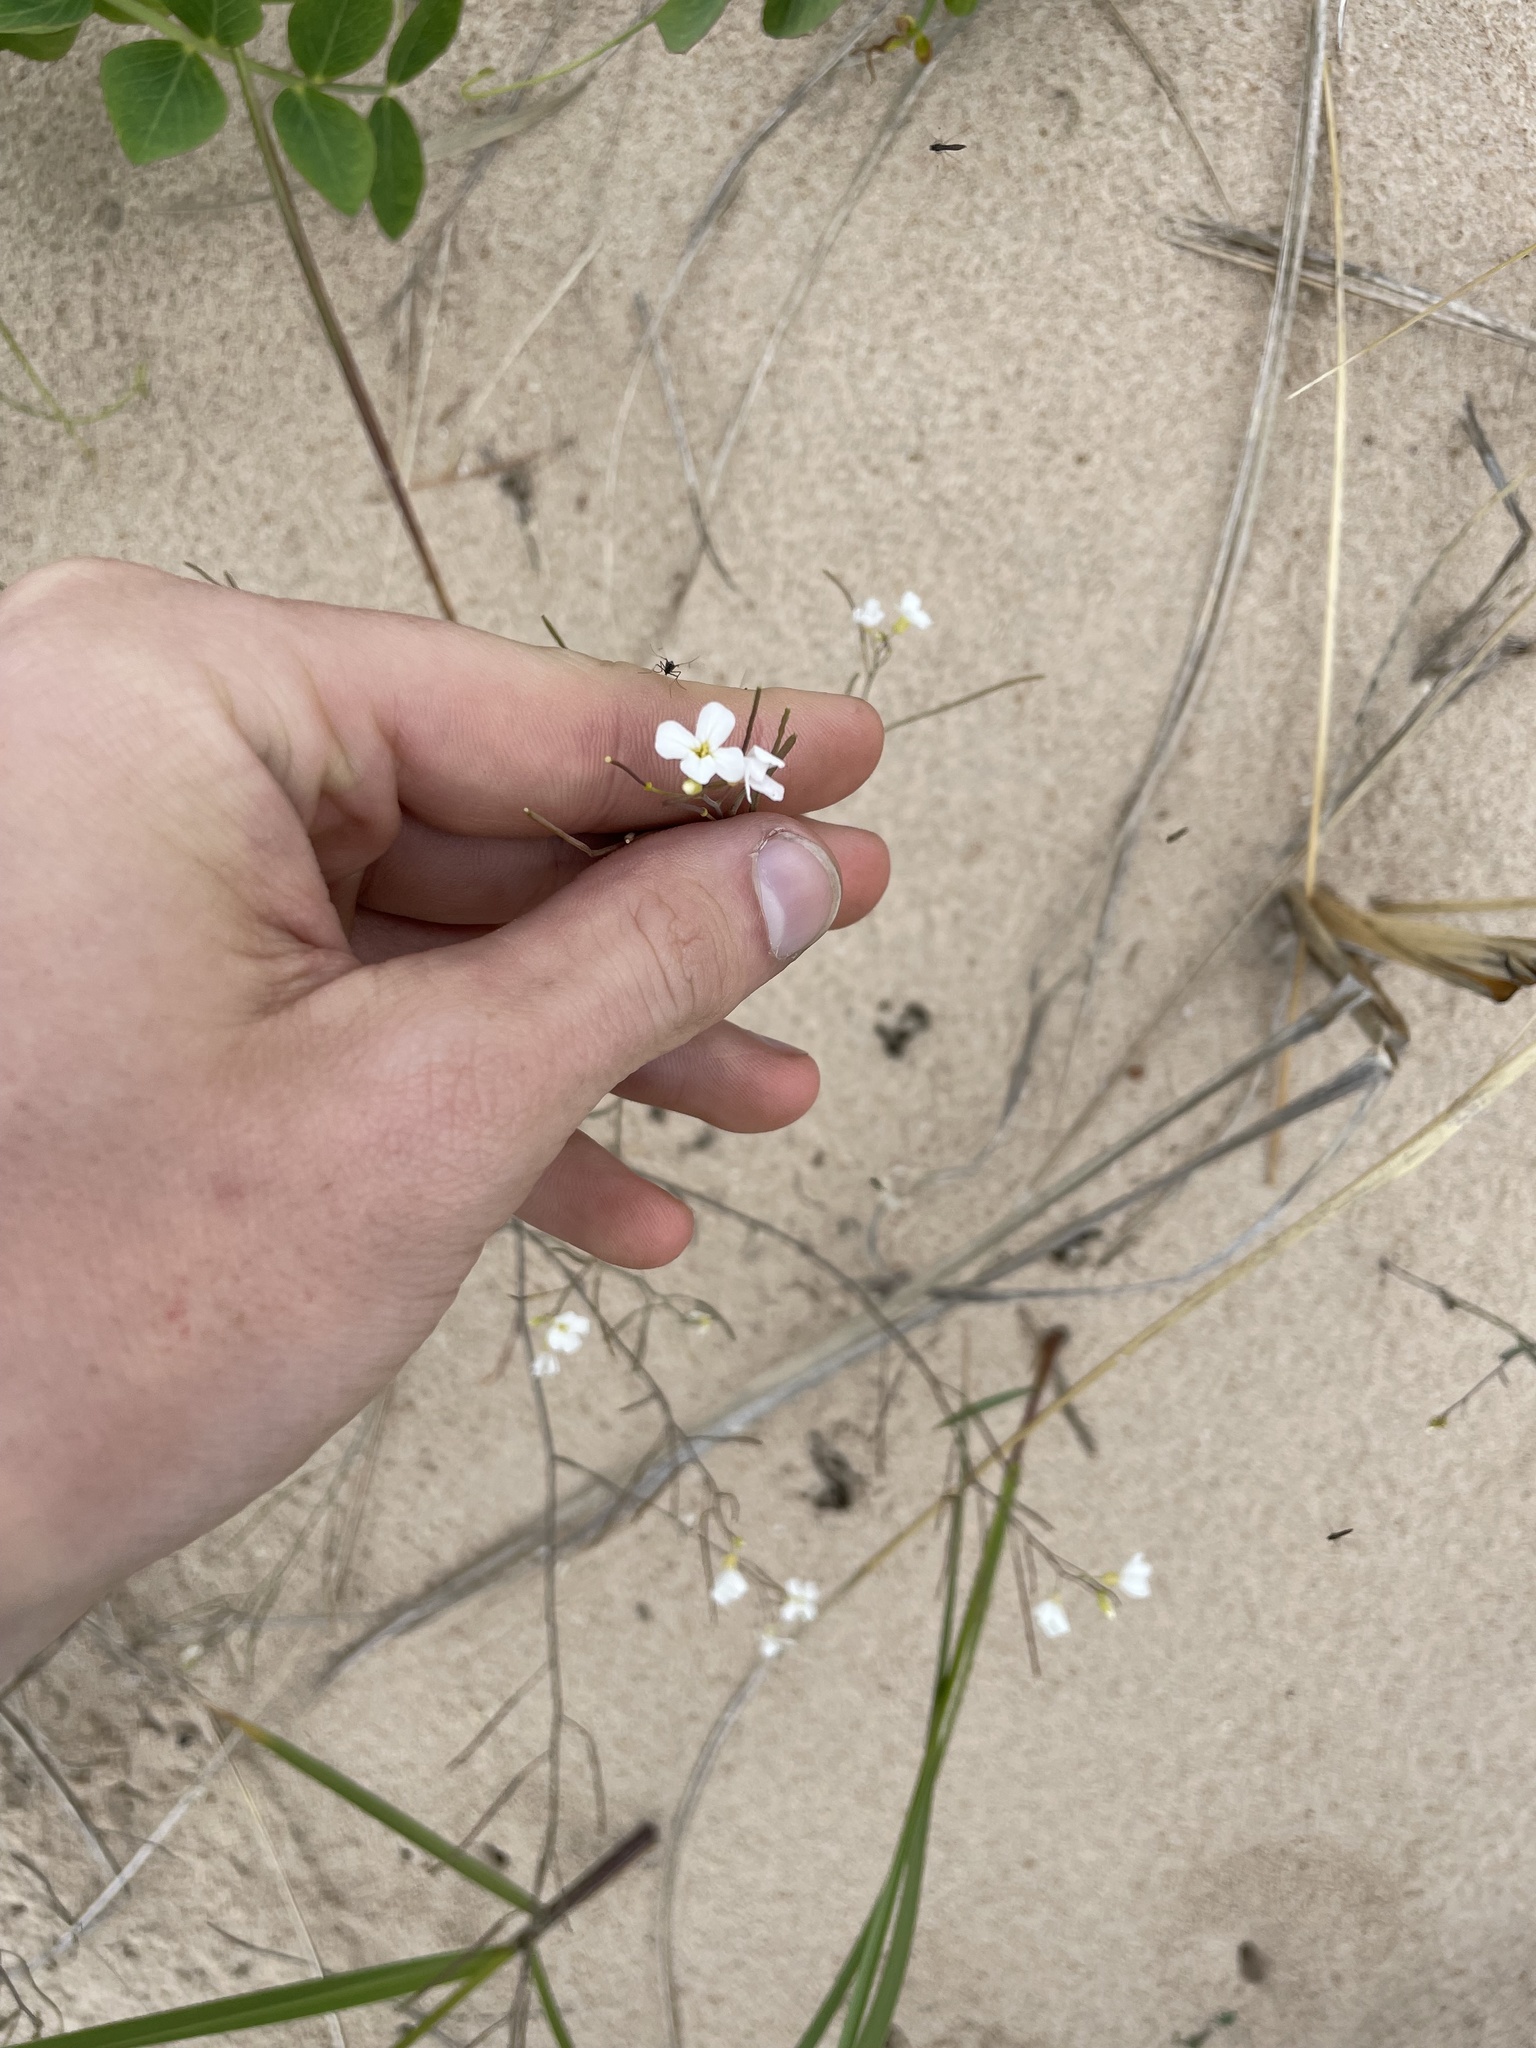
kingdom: Plantae
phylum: Tracheophyta
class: Magnoliopsida
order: Brassicales
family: Brassicaceae
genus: Arabidopsis
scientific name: Arabidopsis lyrata
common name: Lyrate rockcress
